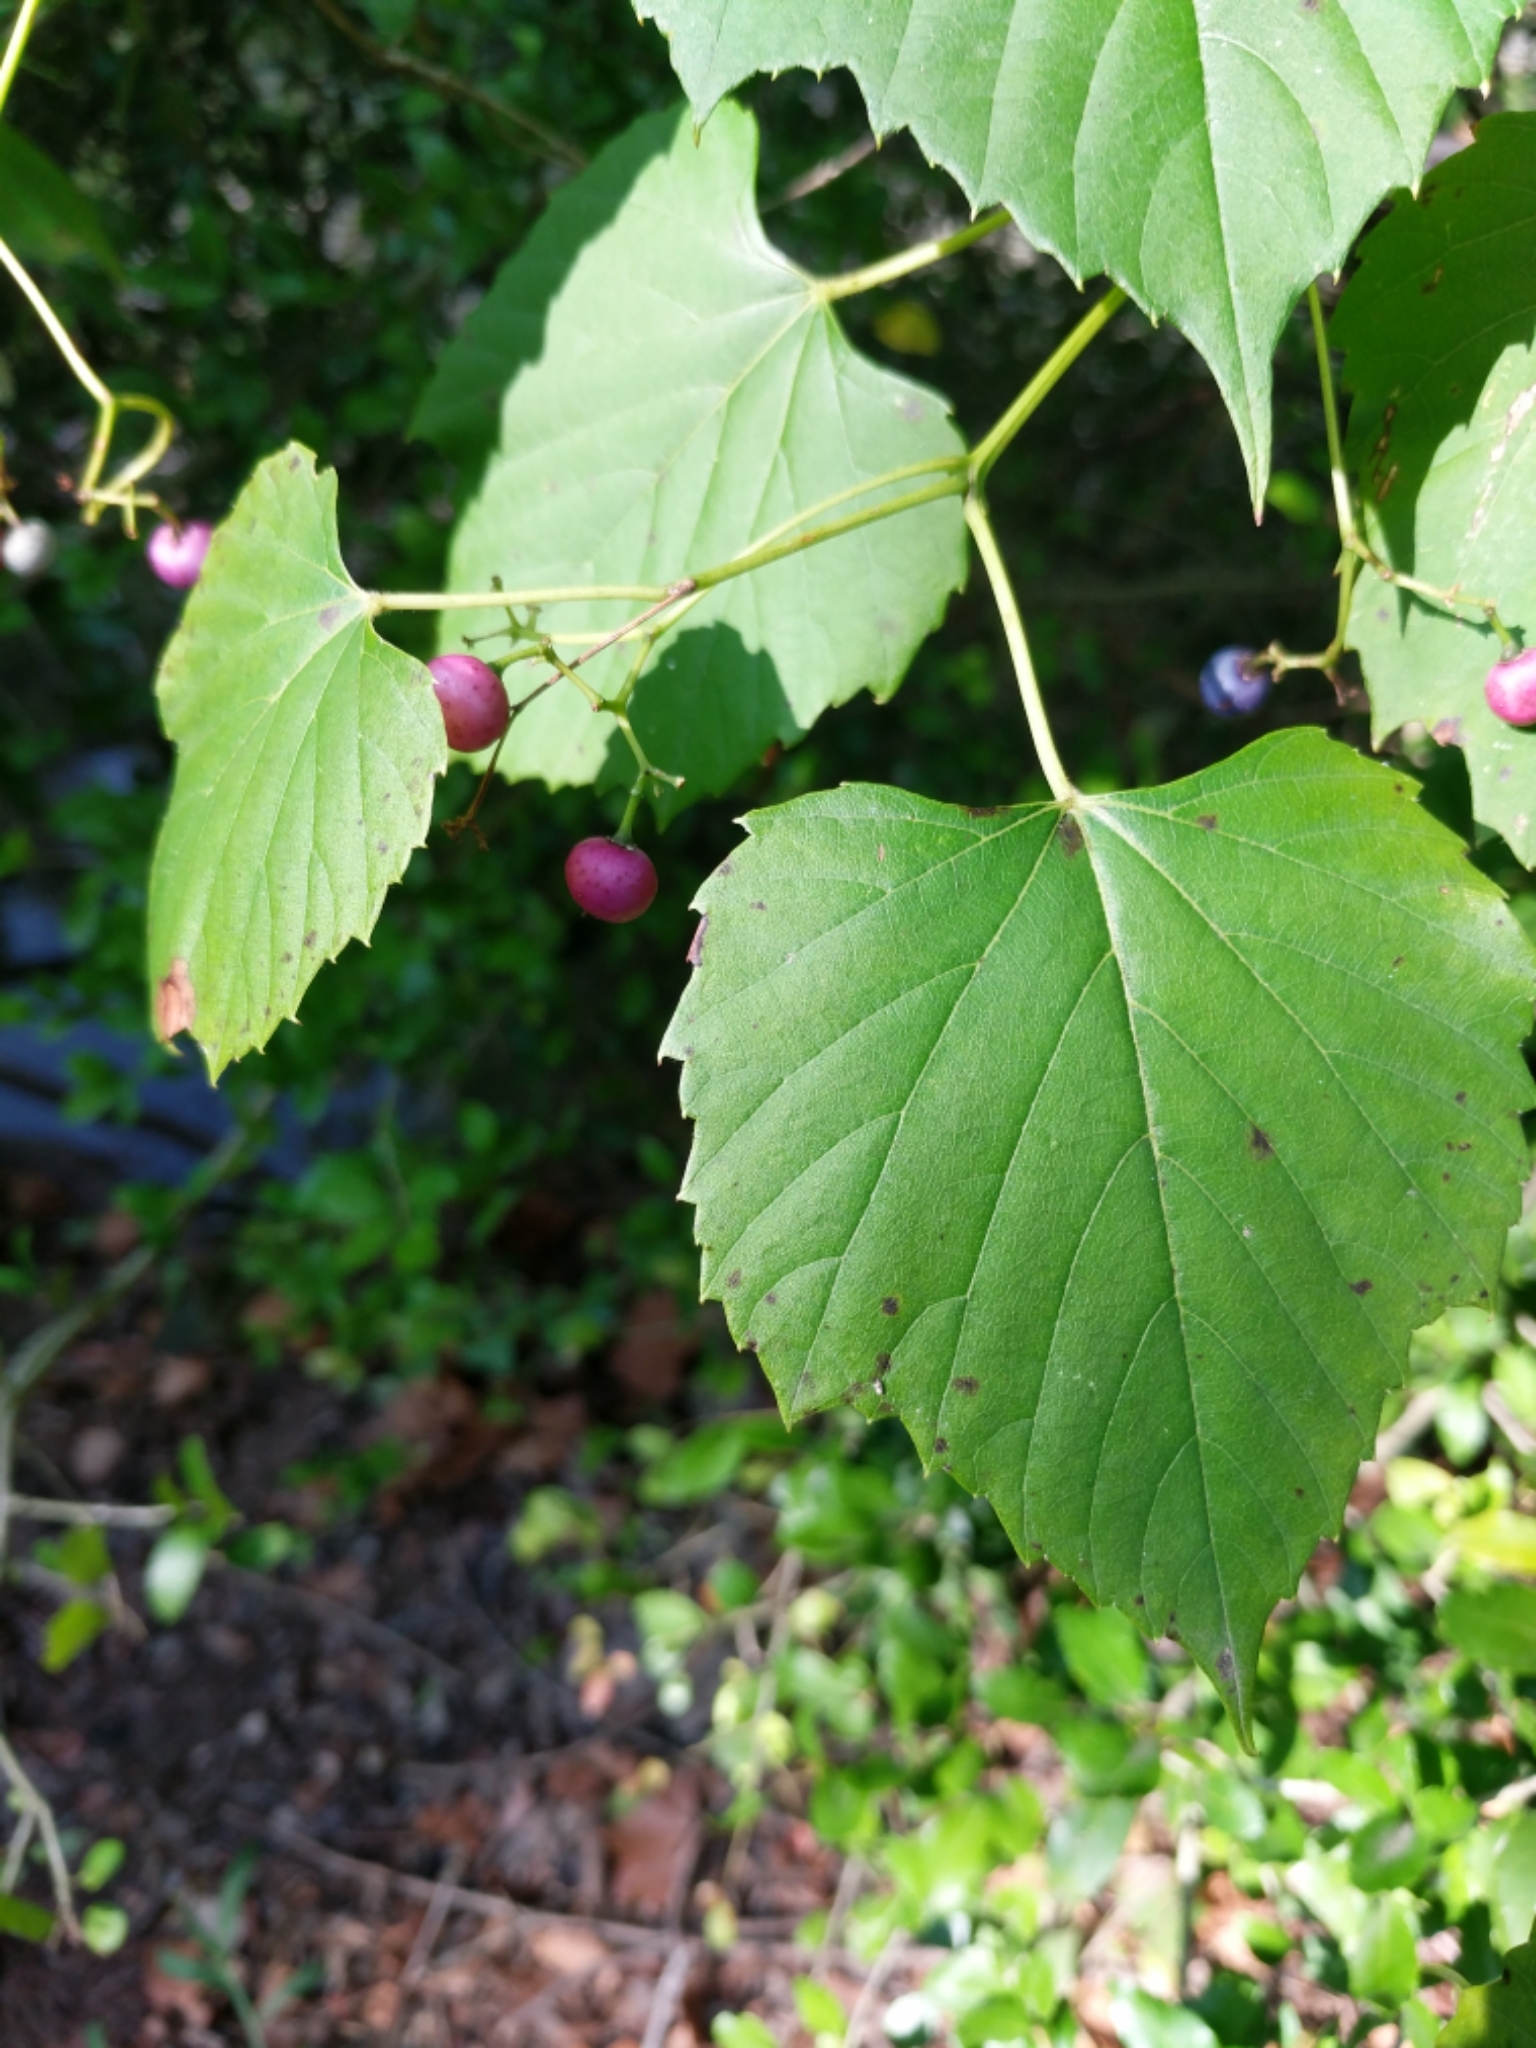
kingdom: Plantae
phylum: Tracheophyta
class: Magnoliopsida
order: Vitales
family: Vitaceae
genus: Ampelopsis
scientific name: Ampelopsis cordata
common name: Heart-leaf ampelopsis
